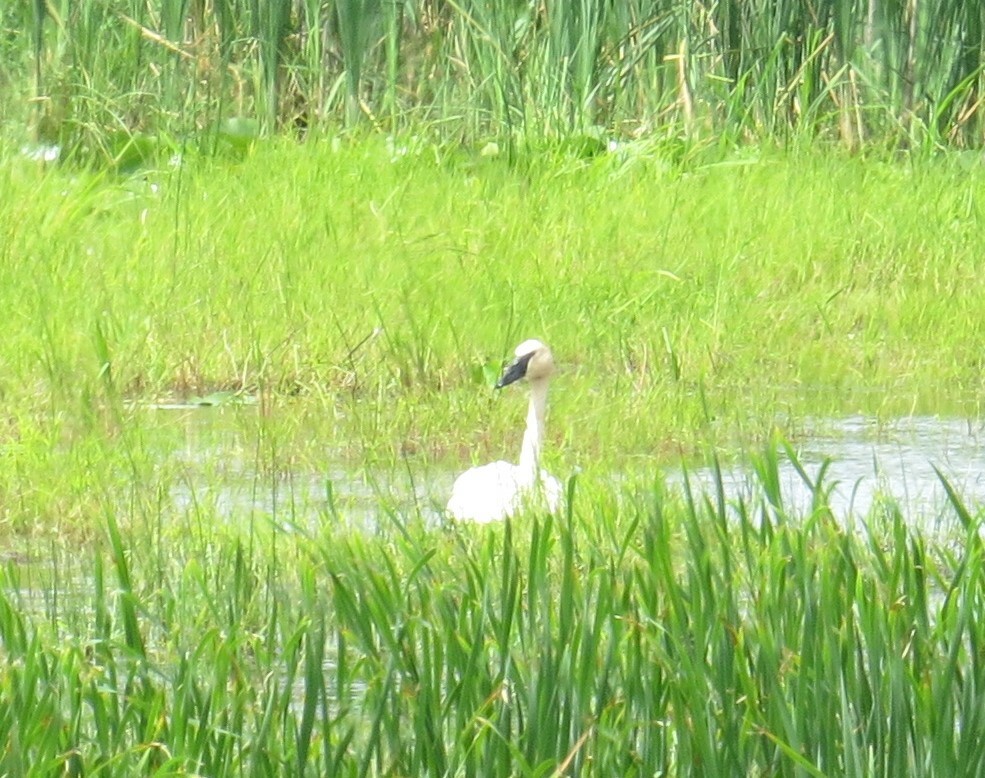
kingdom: Animalia
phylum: Chordata
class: Aves
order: Anseriformes
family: Anatidae
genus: Cygnus
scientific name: Cygnus buccinator
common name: Trumpeter swan
